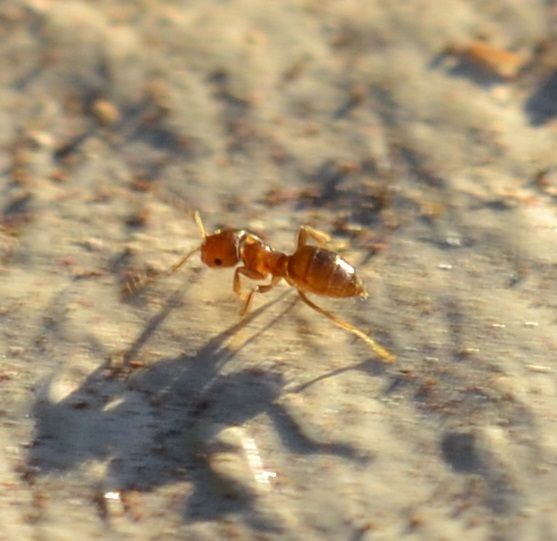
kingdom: Animalia
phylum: Arthropoda
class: Insecta
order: Hymenoptera
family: Formicidae
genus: Brachymyrmex
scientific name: Brachymyrmex obscurior
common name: Obscure rover ant
